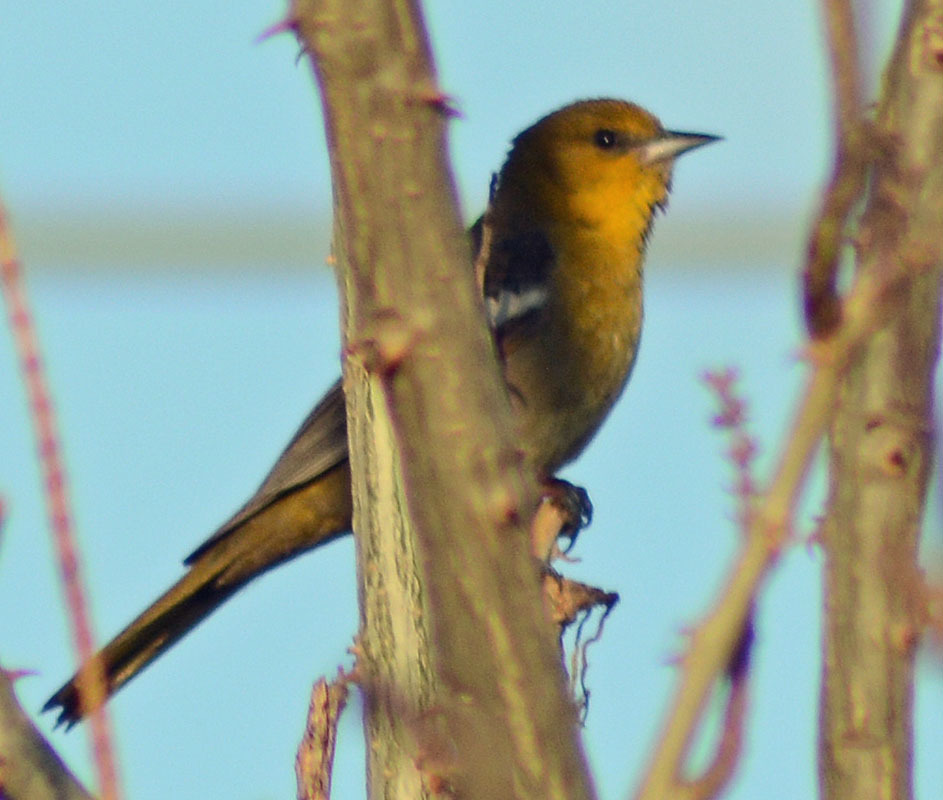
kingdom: Animalia
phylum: Chordata
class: Aves
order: Passeriformes
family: Icteridae
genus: Icterus
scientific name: Icterus abeillei
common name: Black-backed oriole
